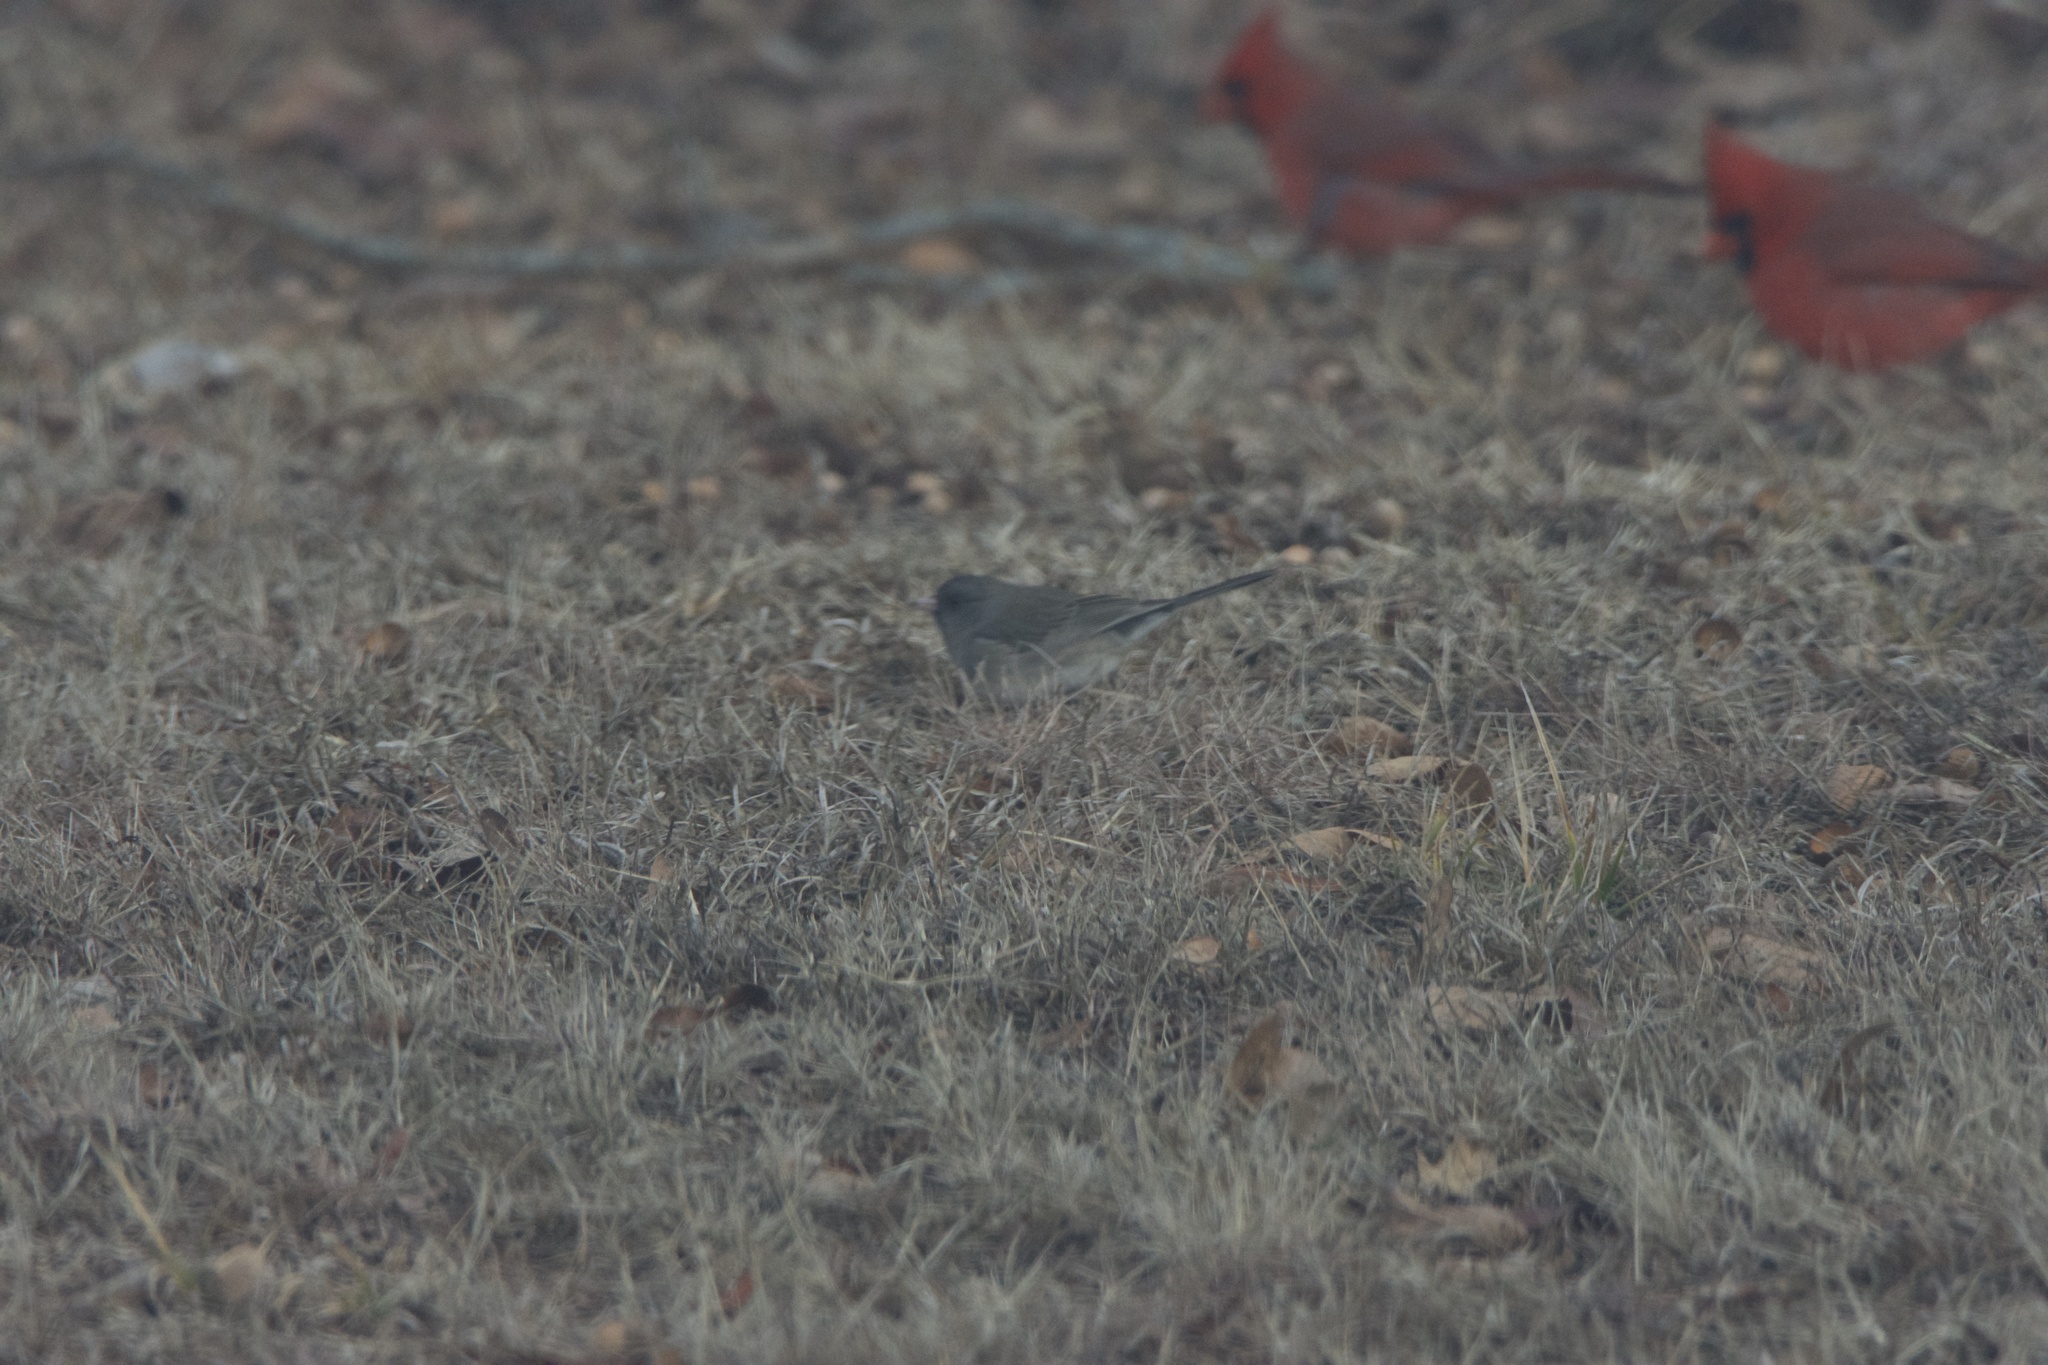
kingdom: Animalia
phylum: Chordata
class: Aves
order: Passeriformes
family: Passerellidae
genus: Junco
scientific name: Junco hyemalis
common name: Dark-eyed junco
